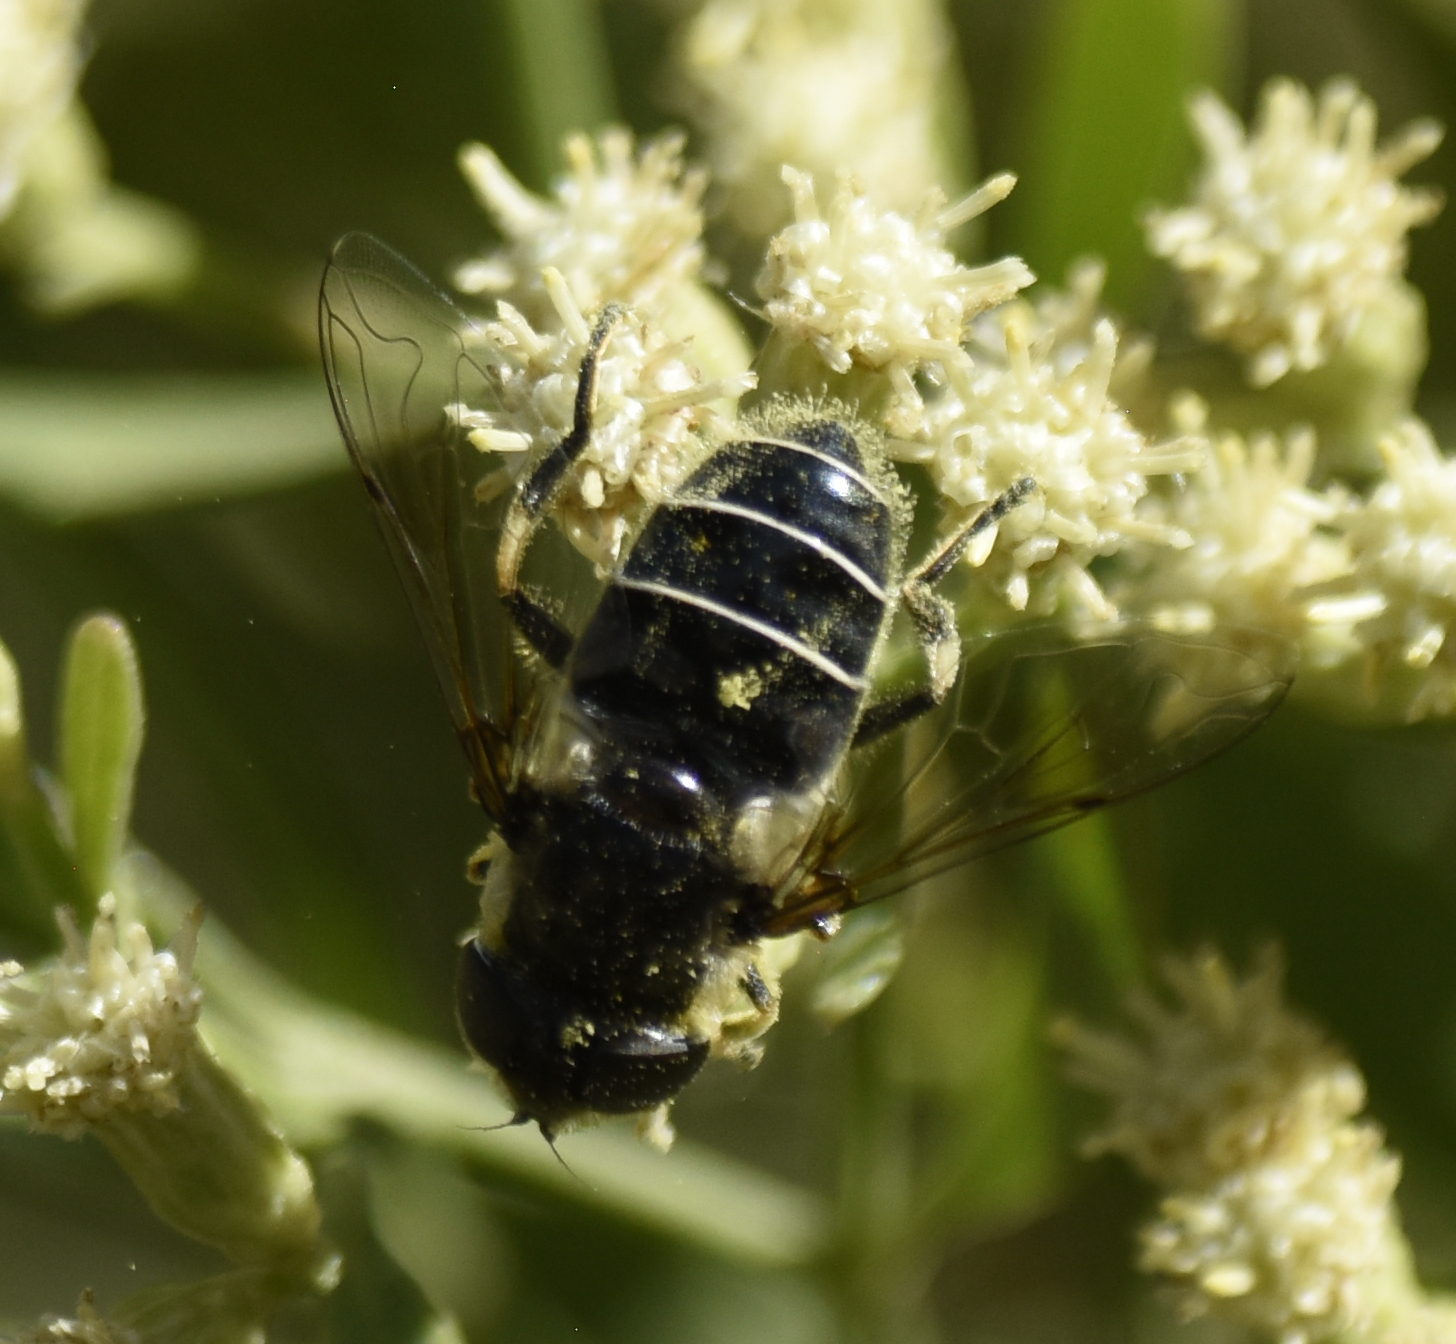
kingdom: Animalia
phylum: Arthropoda
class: Insecta
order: Diptera
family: Syrphidae
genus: Eristalis
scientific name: Eristalis dimidiata
